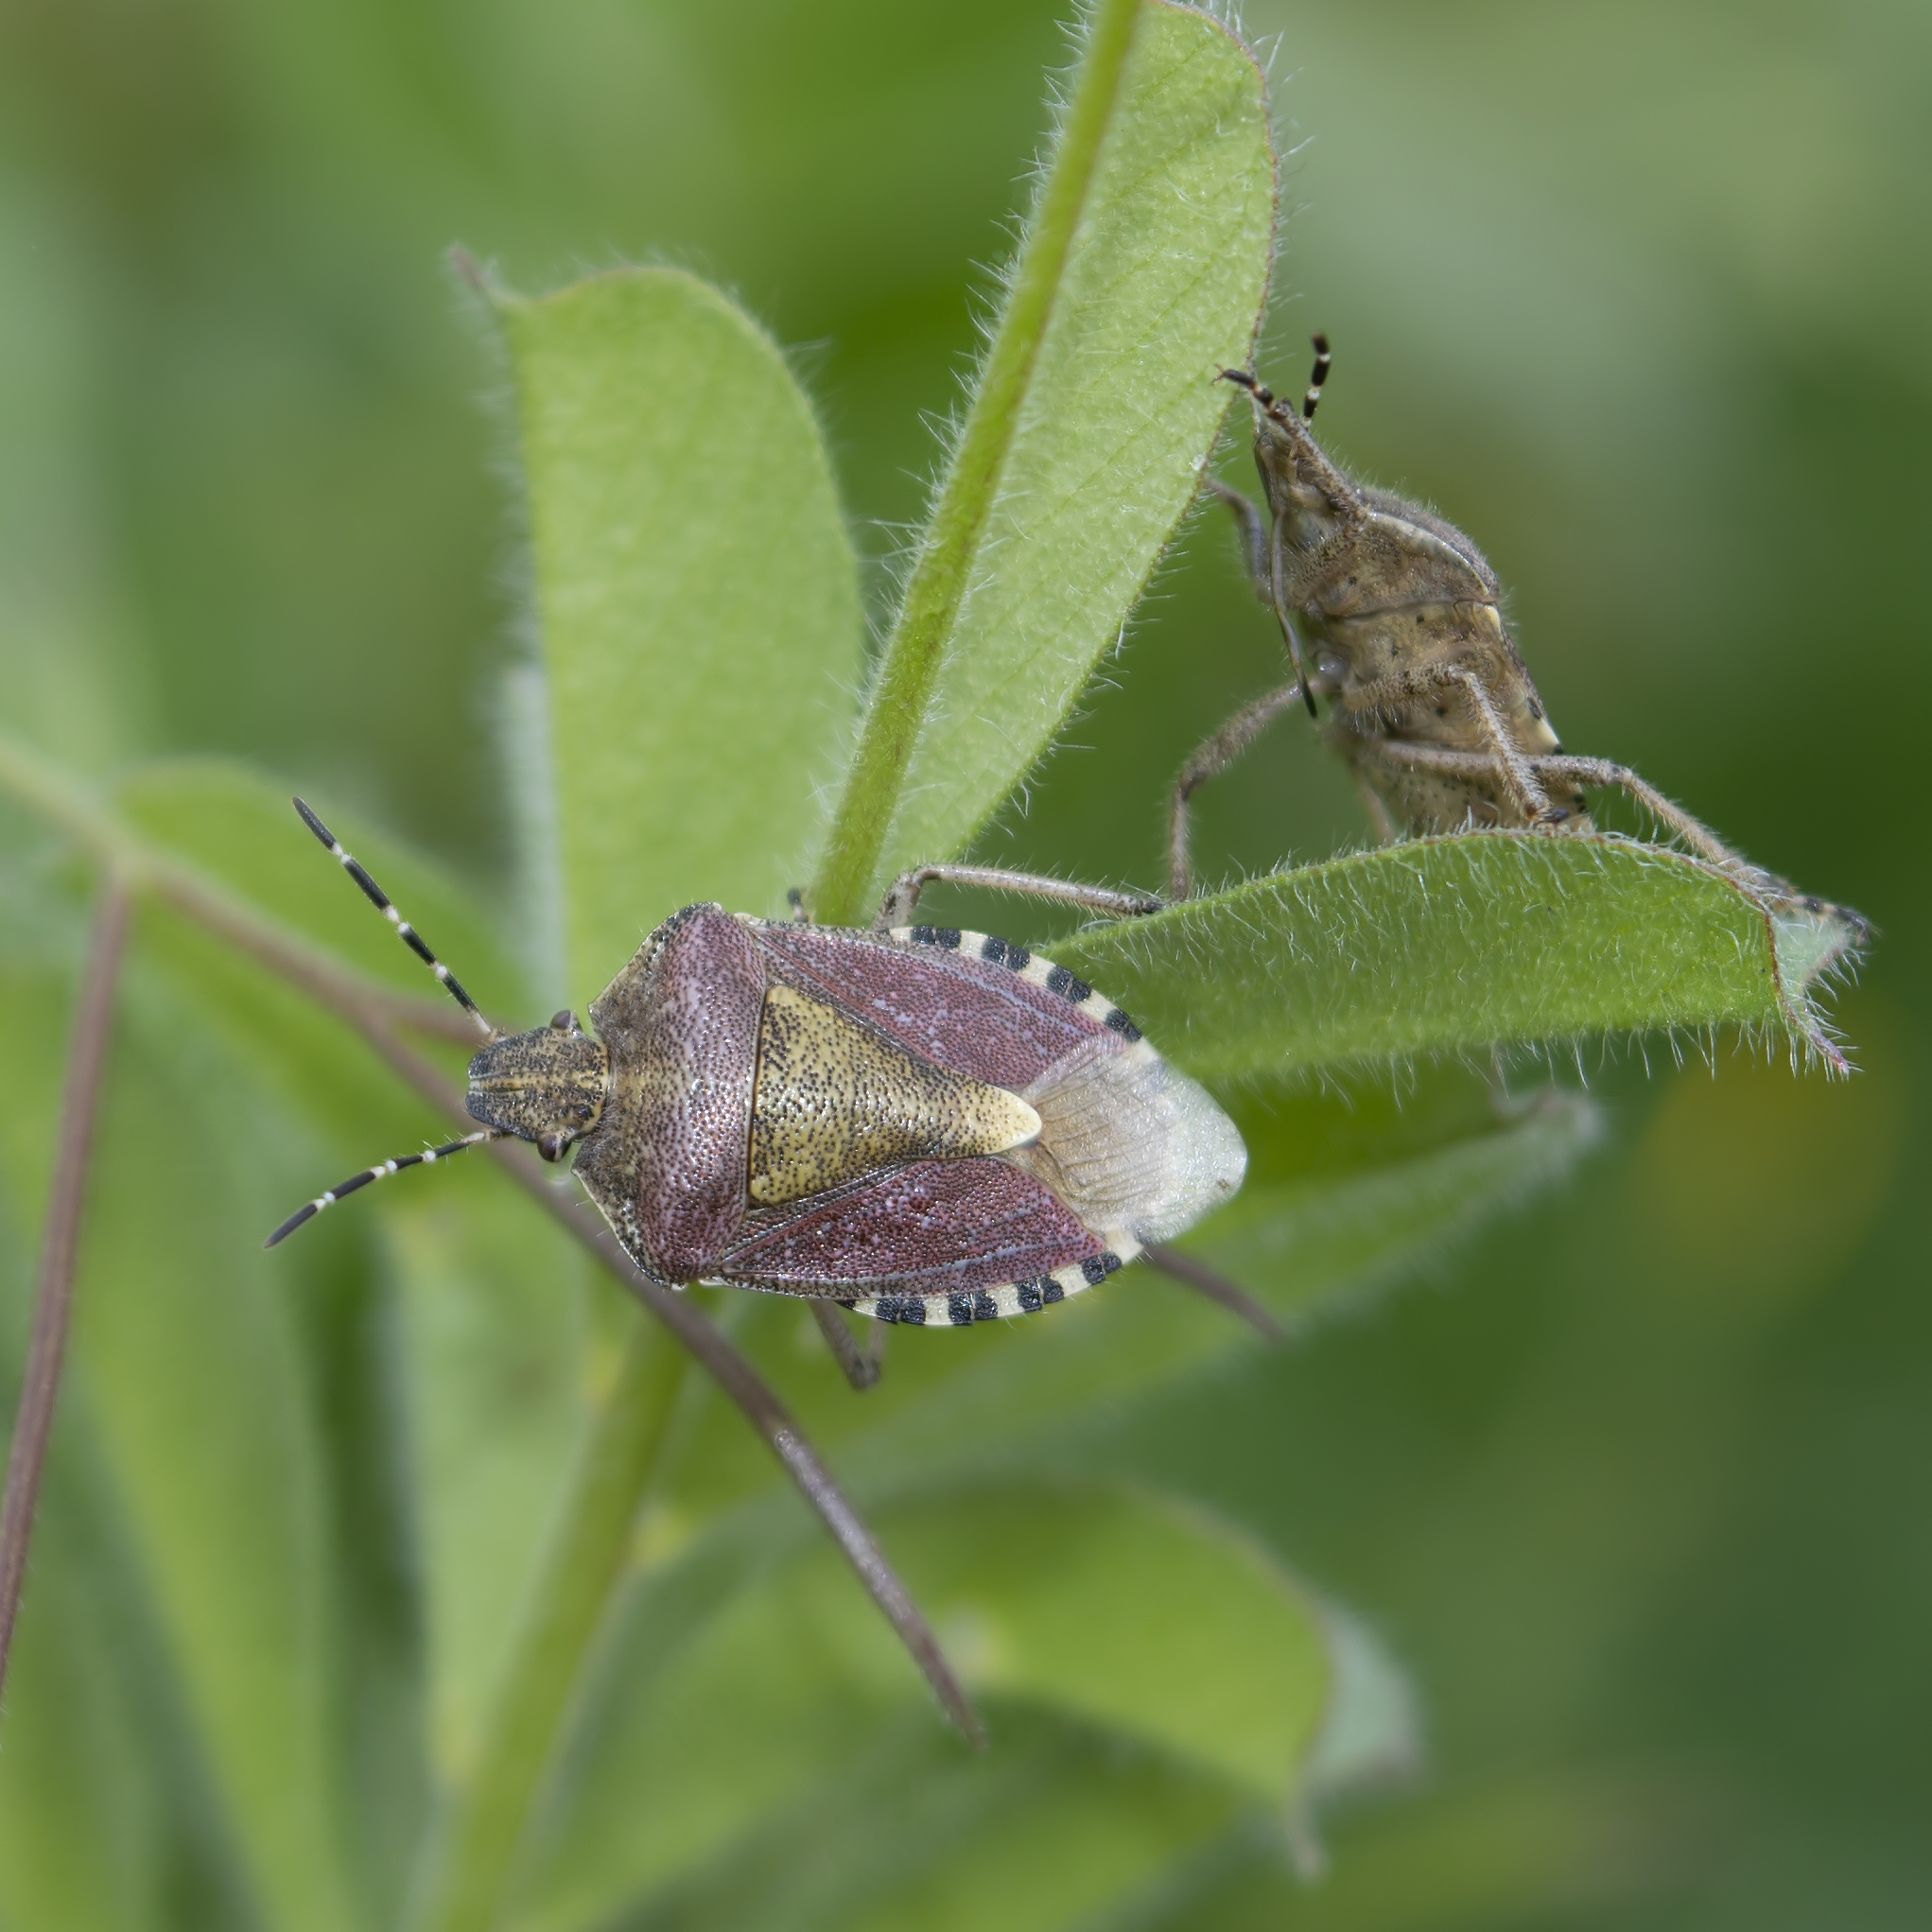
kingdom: Animalia
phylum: Arthropoda
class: Insecta
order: Hemiptera
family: Pentatomidae
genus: Dolycoris
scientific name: Dolycoris baccarum
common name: Sloe bug
